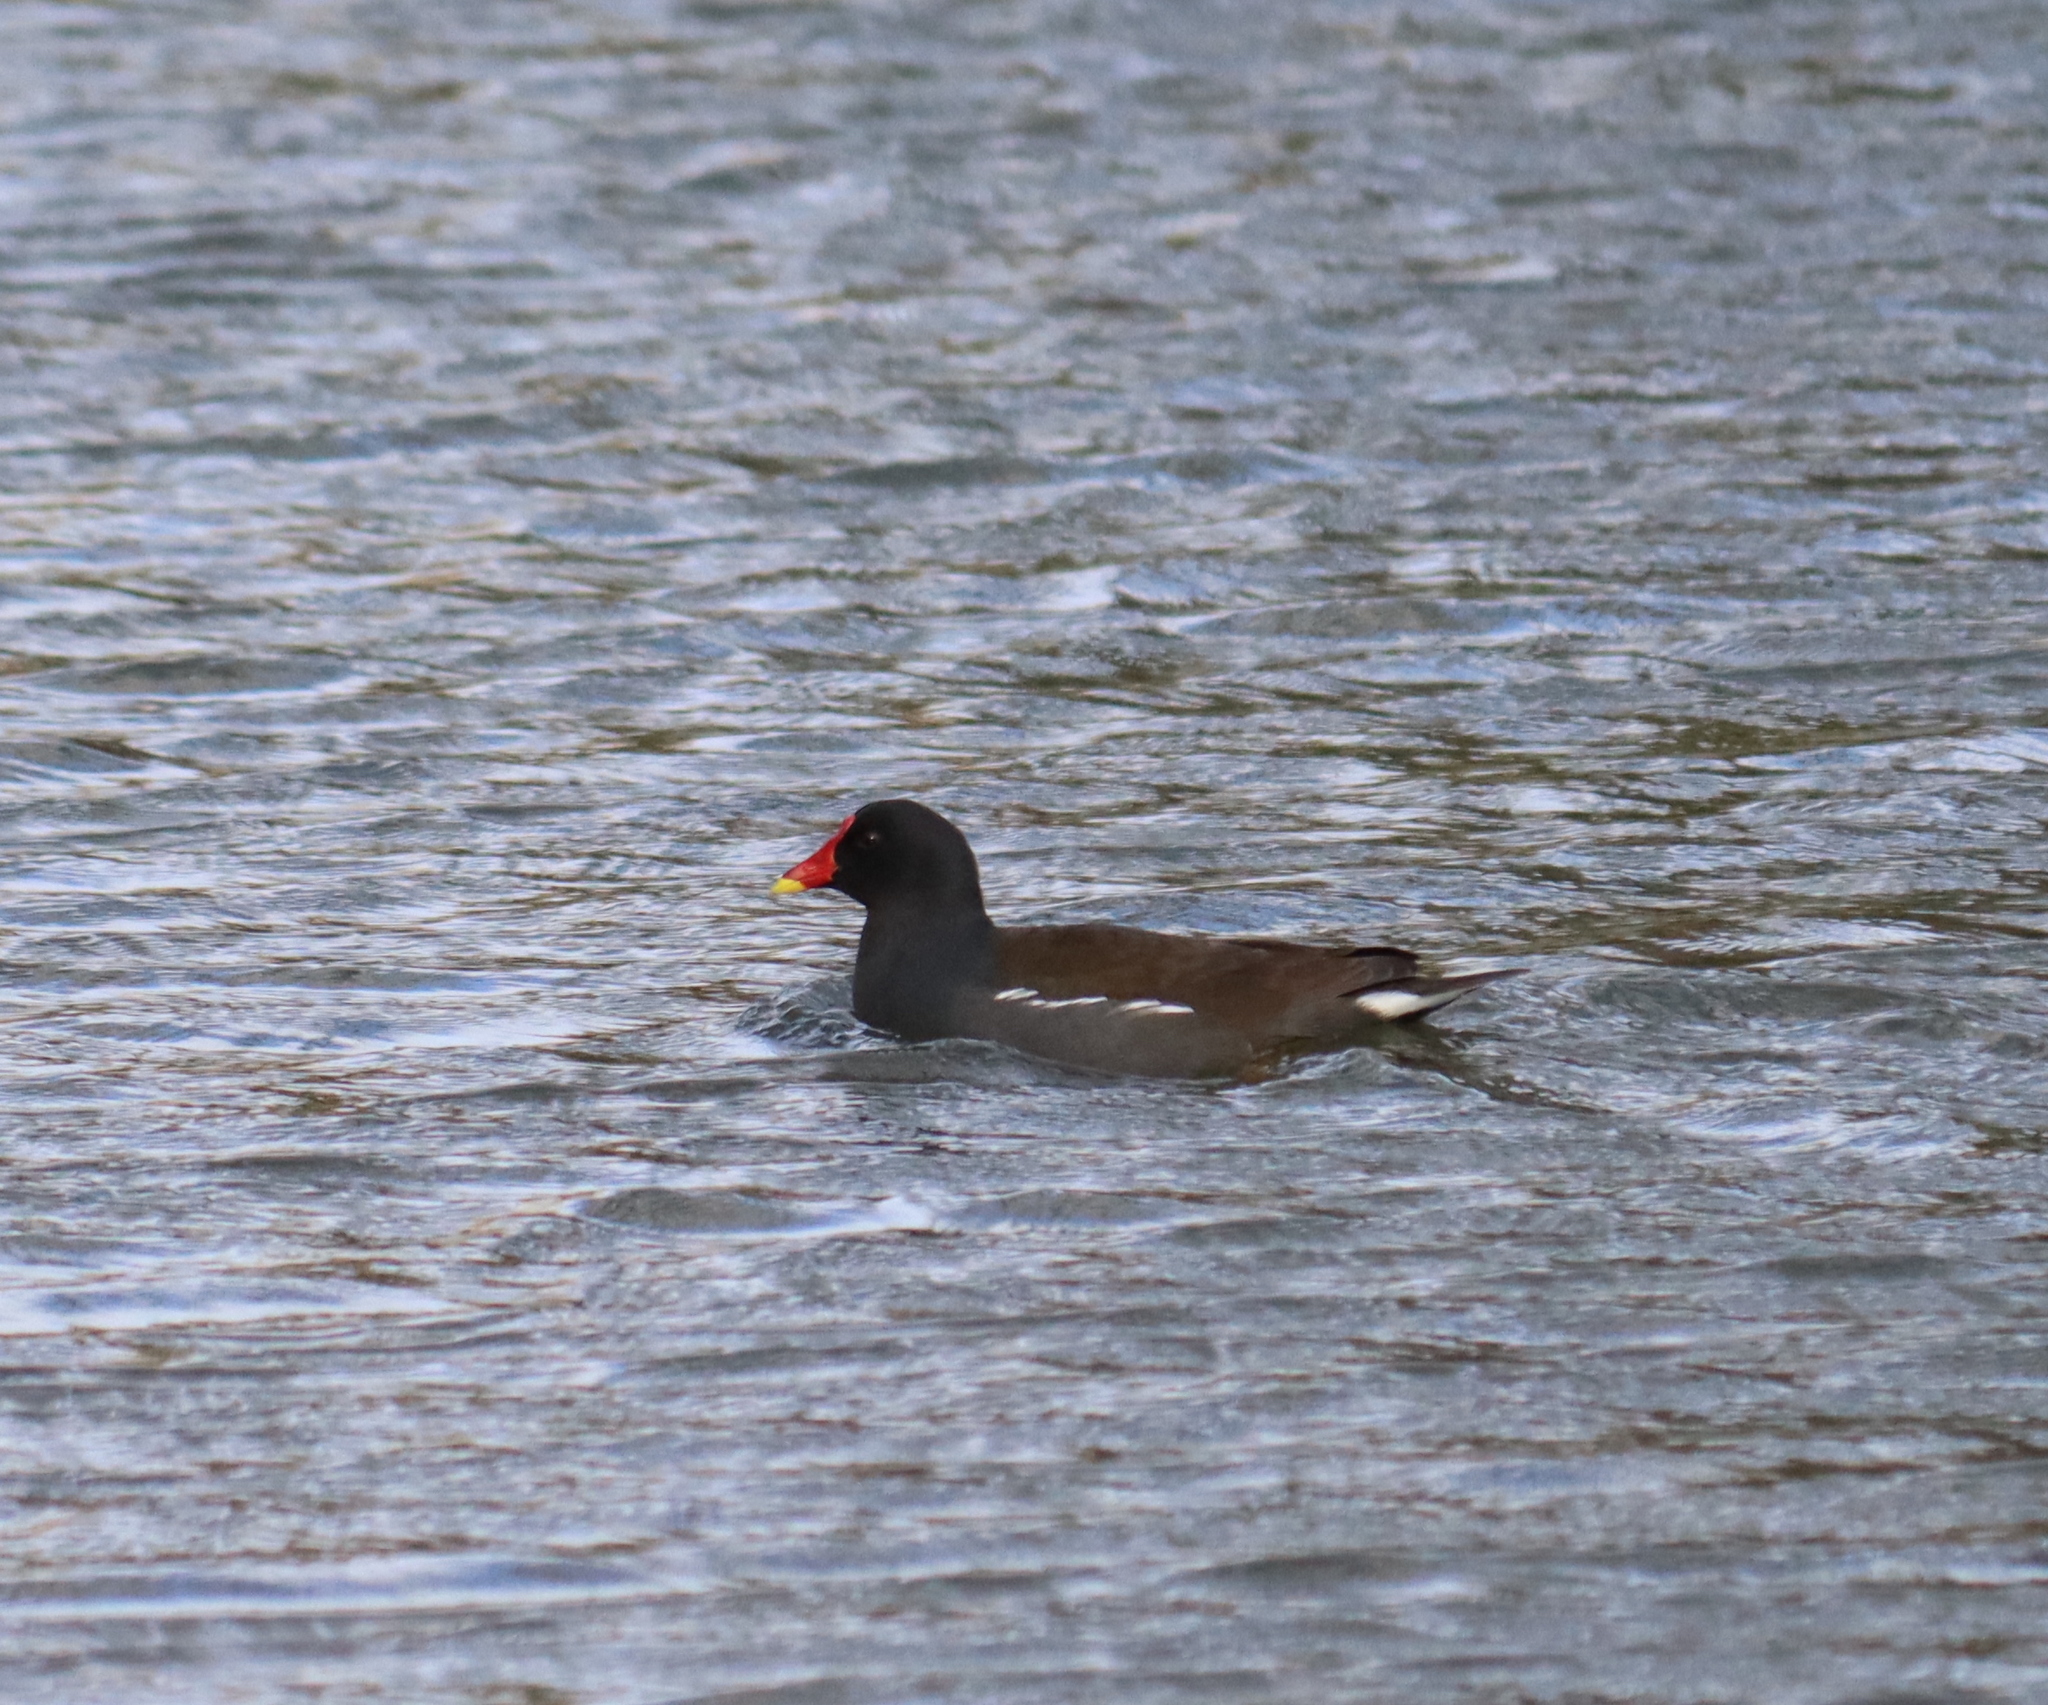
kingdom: Animalia
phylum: Chordata
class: Aves
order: Gruiformes
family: Rallidae
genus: Gallinula
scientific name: Gallinula chloropus
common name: Common moorhen
